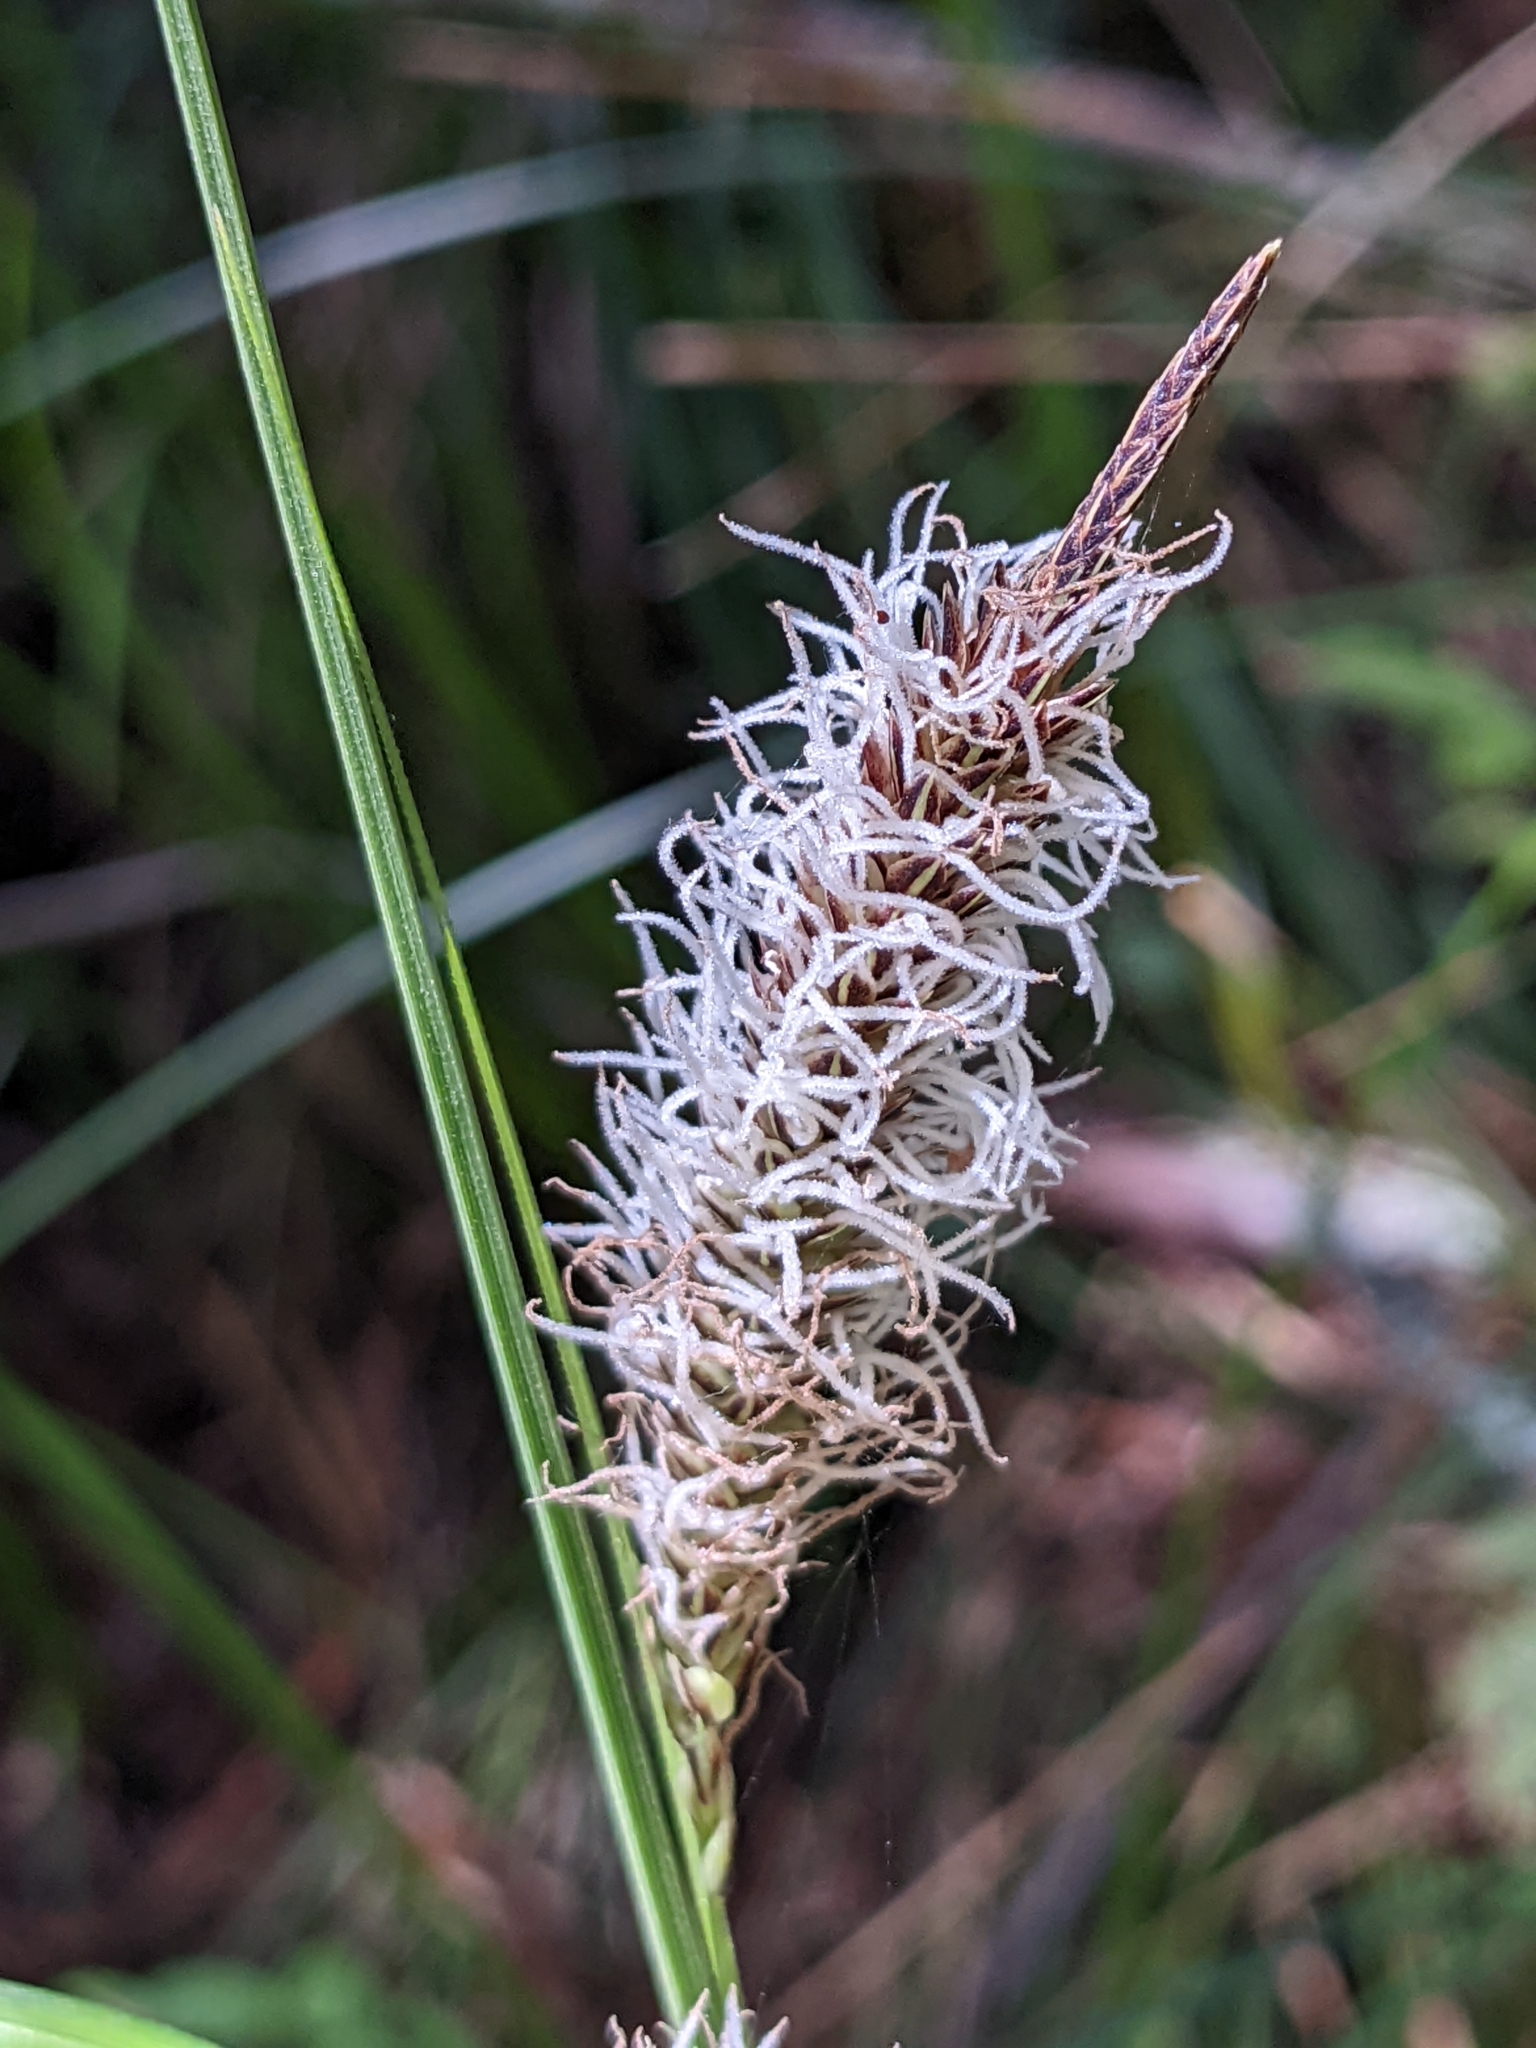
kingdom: Plantae
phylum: Tracheophyta
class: Liliopsida
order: Poales
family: Cyperaceae
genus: Carex
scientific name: Carex obnupta
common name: Slough sedge
